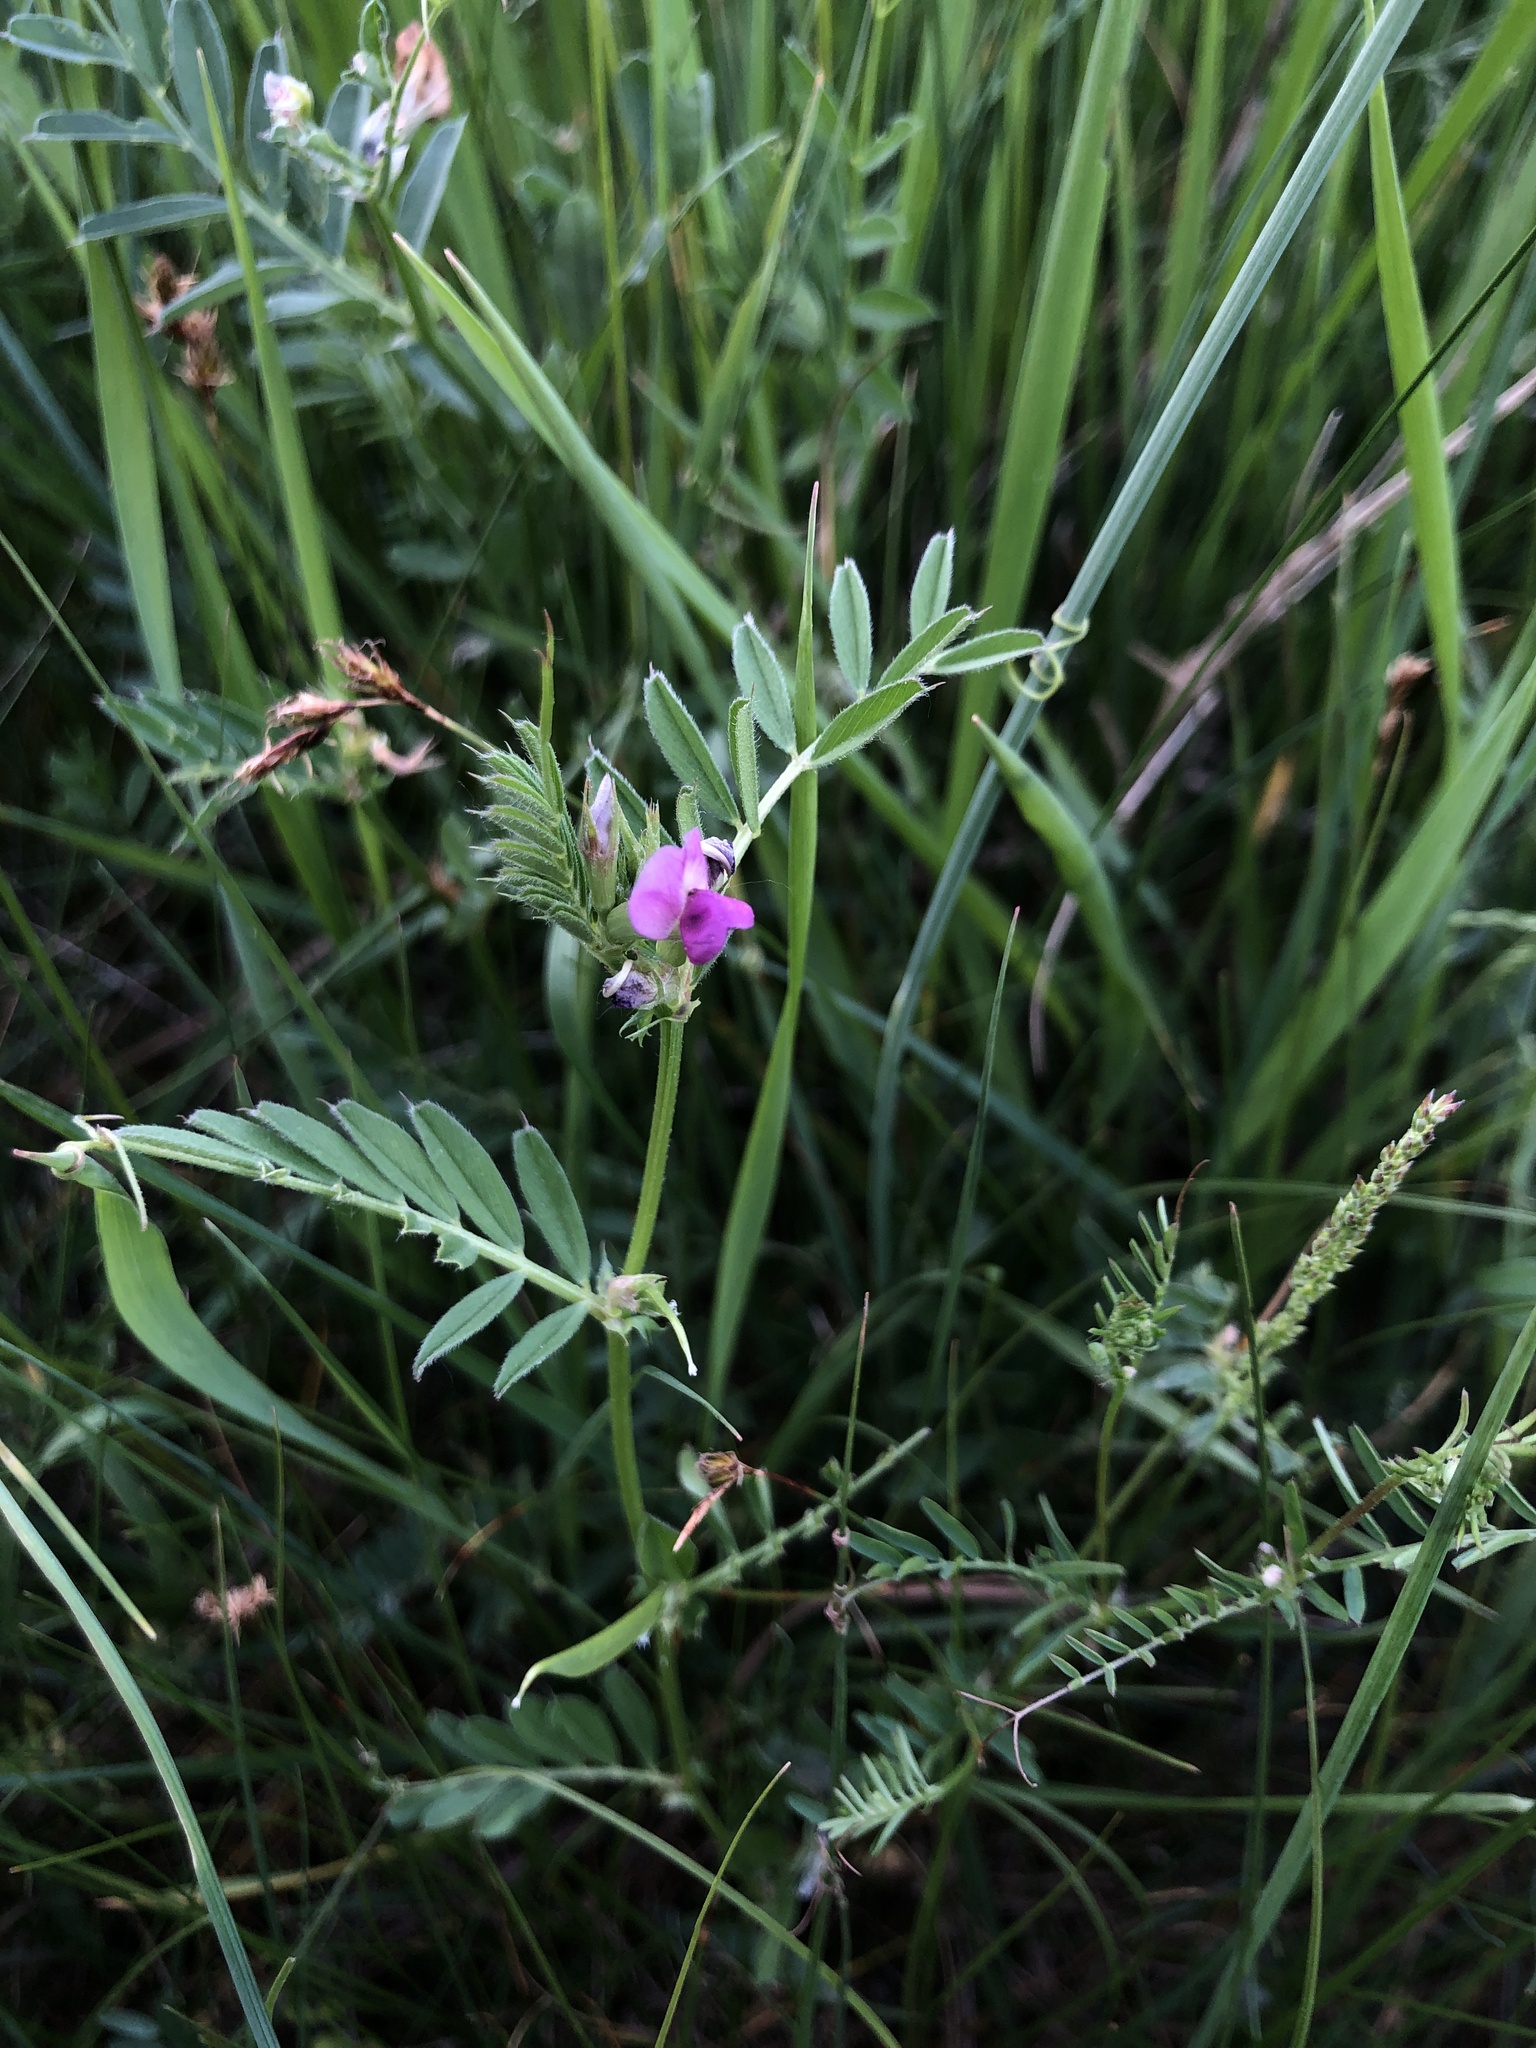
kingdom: Plantae
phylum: Tracheophyta
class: Magnoliopsida
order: Fabales
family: Fabaceae
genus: Vicia
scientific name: Vicia sativa
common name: Garden vetch
